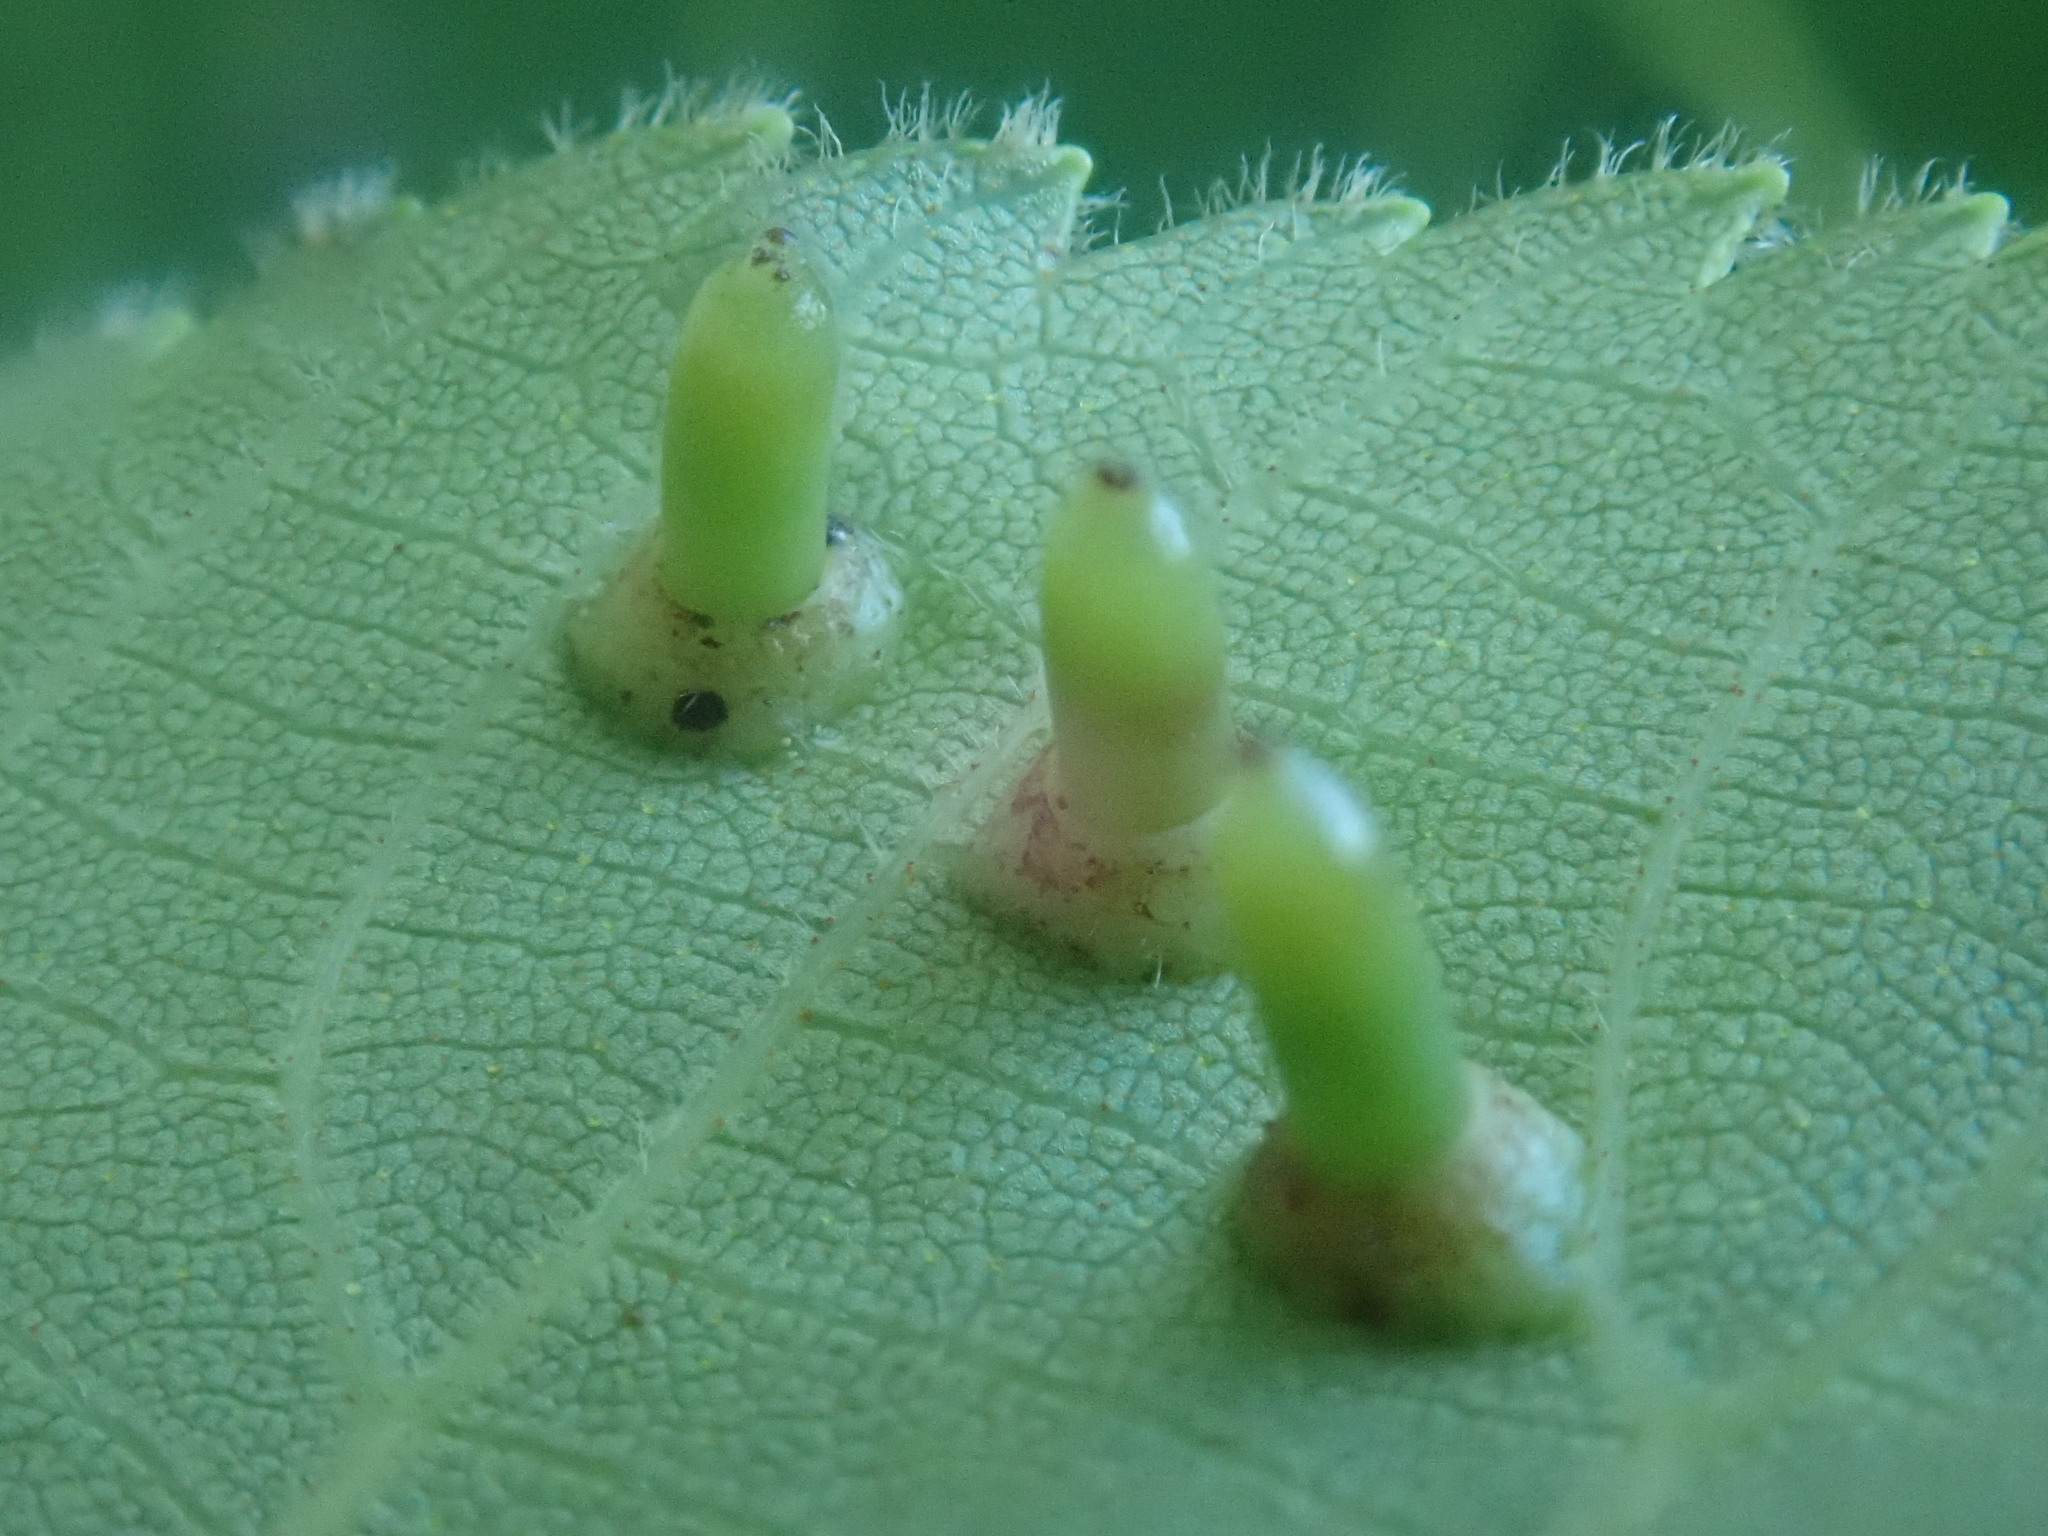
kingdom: Animalia
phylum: Arthropoda
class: Insecta
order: Diptera
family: Cecidomyiidae
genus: Caryomyia
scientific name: Caryomyia tubicola
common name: Hickory bullet gall midge
